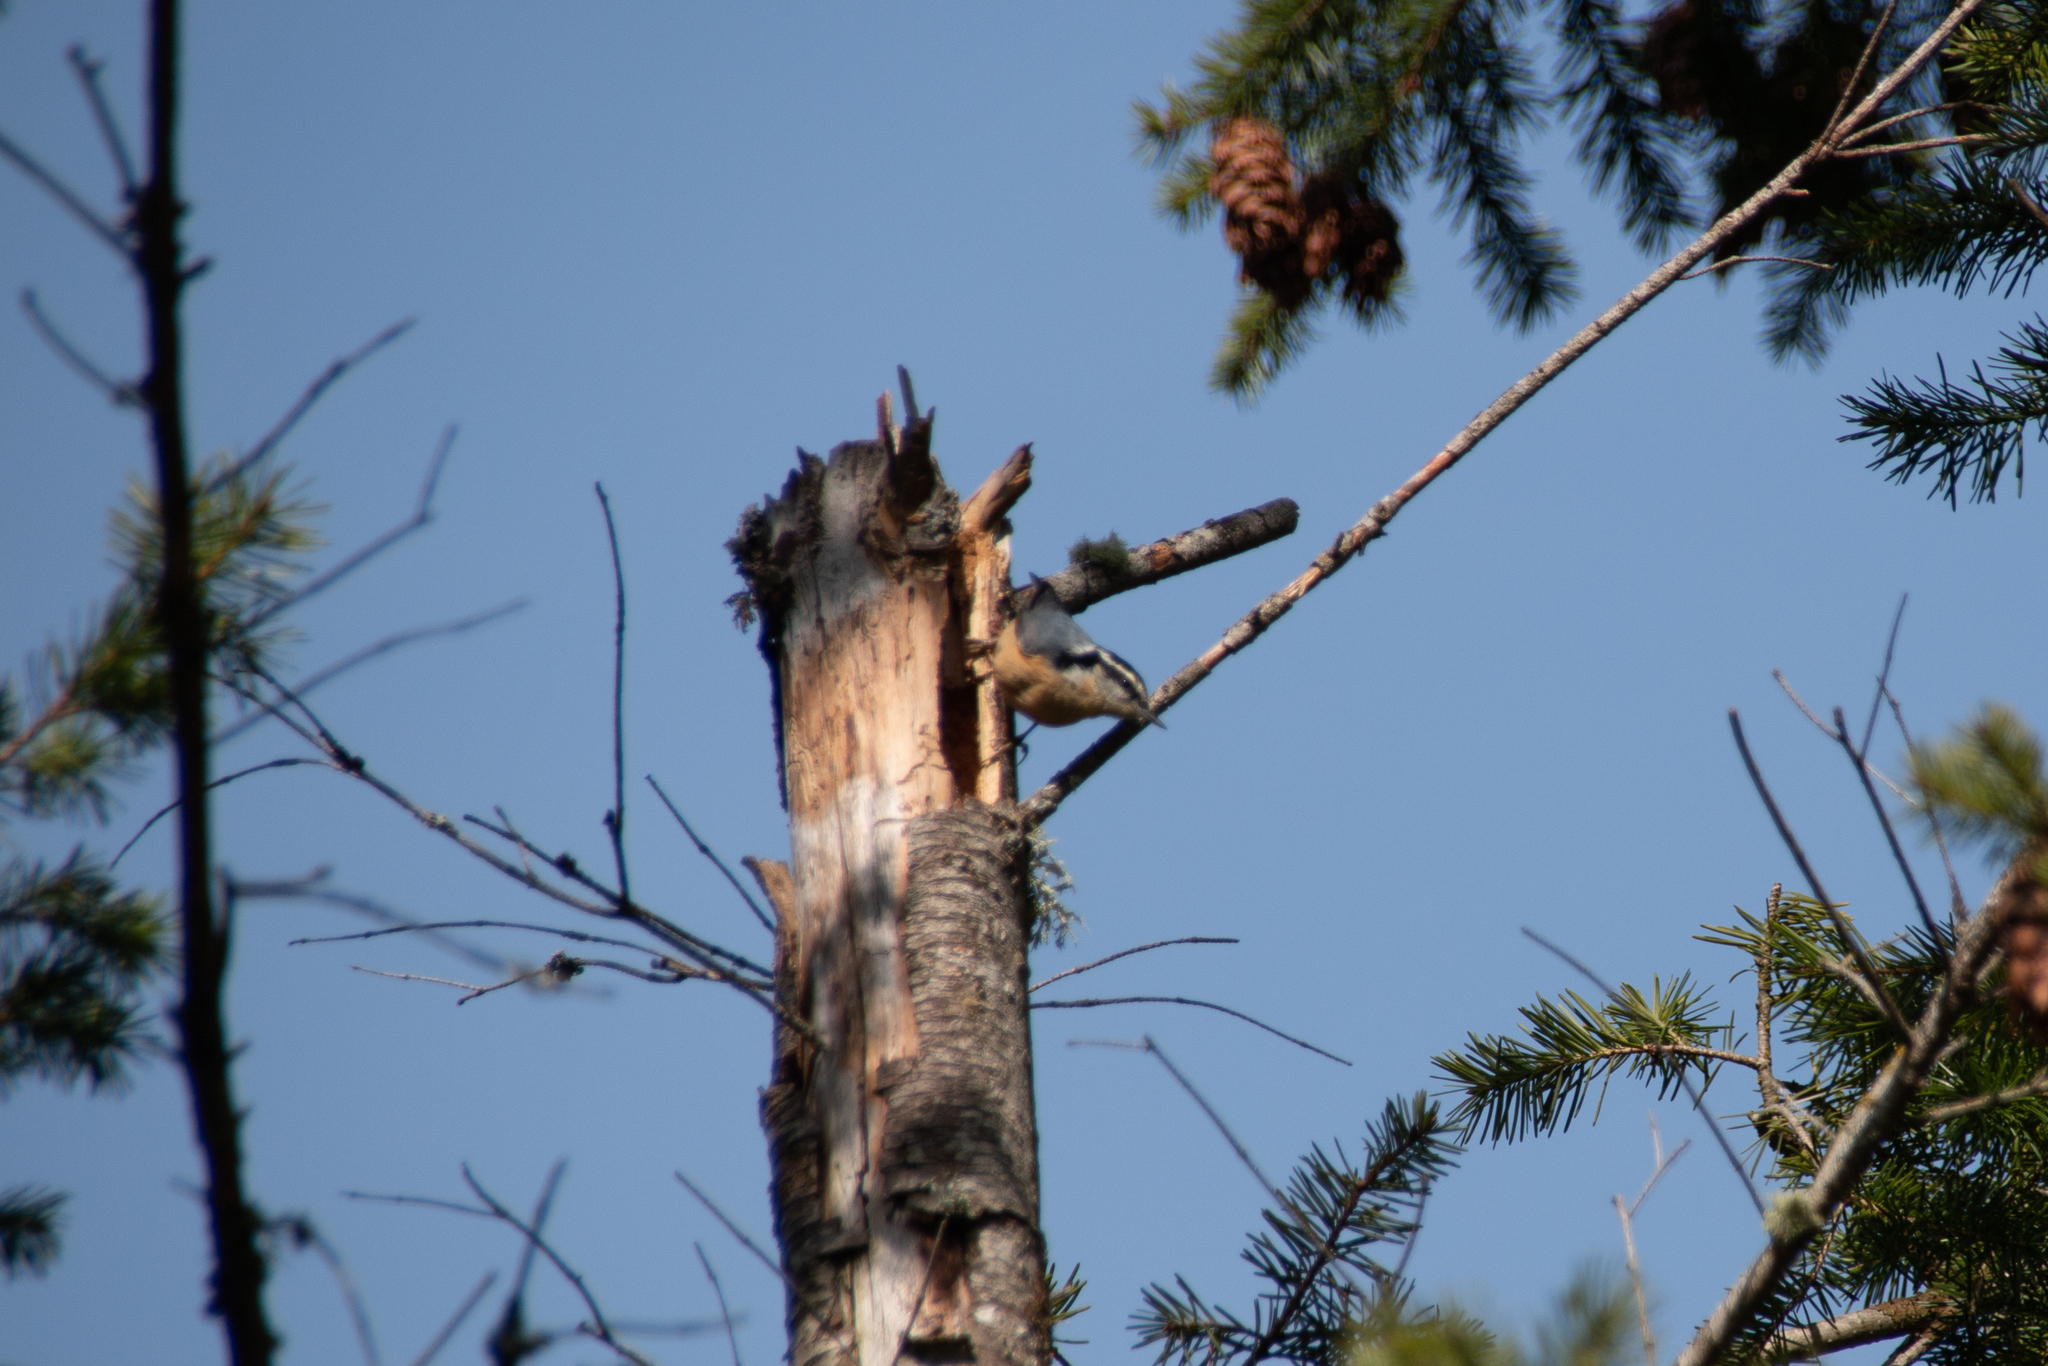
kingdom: Animalia
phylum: Chordata
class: Aves
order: Passeriformes
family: Sittidae
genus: Sitta
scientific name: Sitta canadensis
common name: Red-breasted nuthatch
